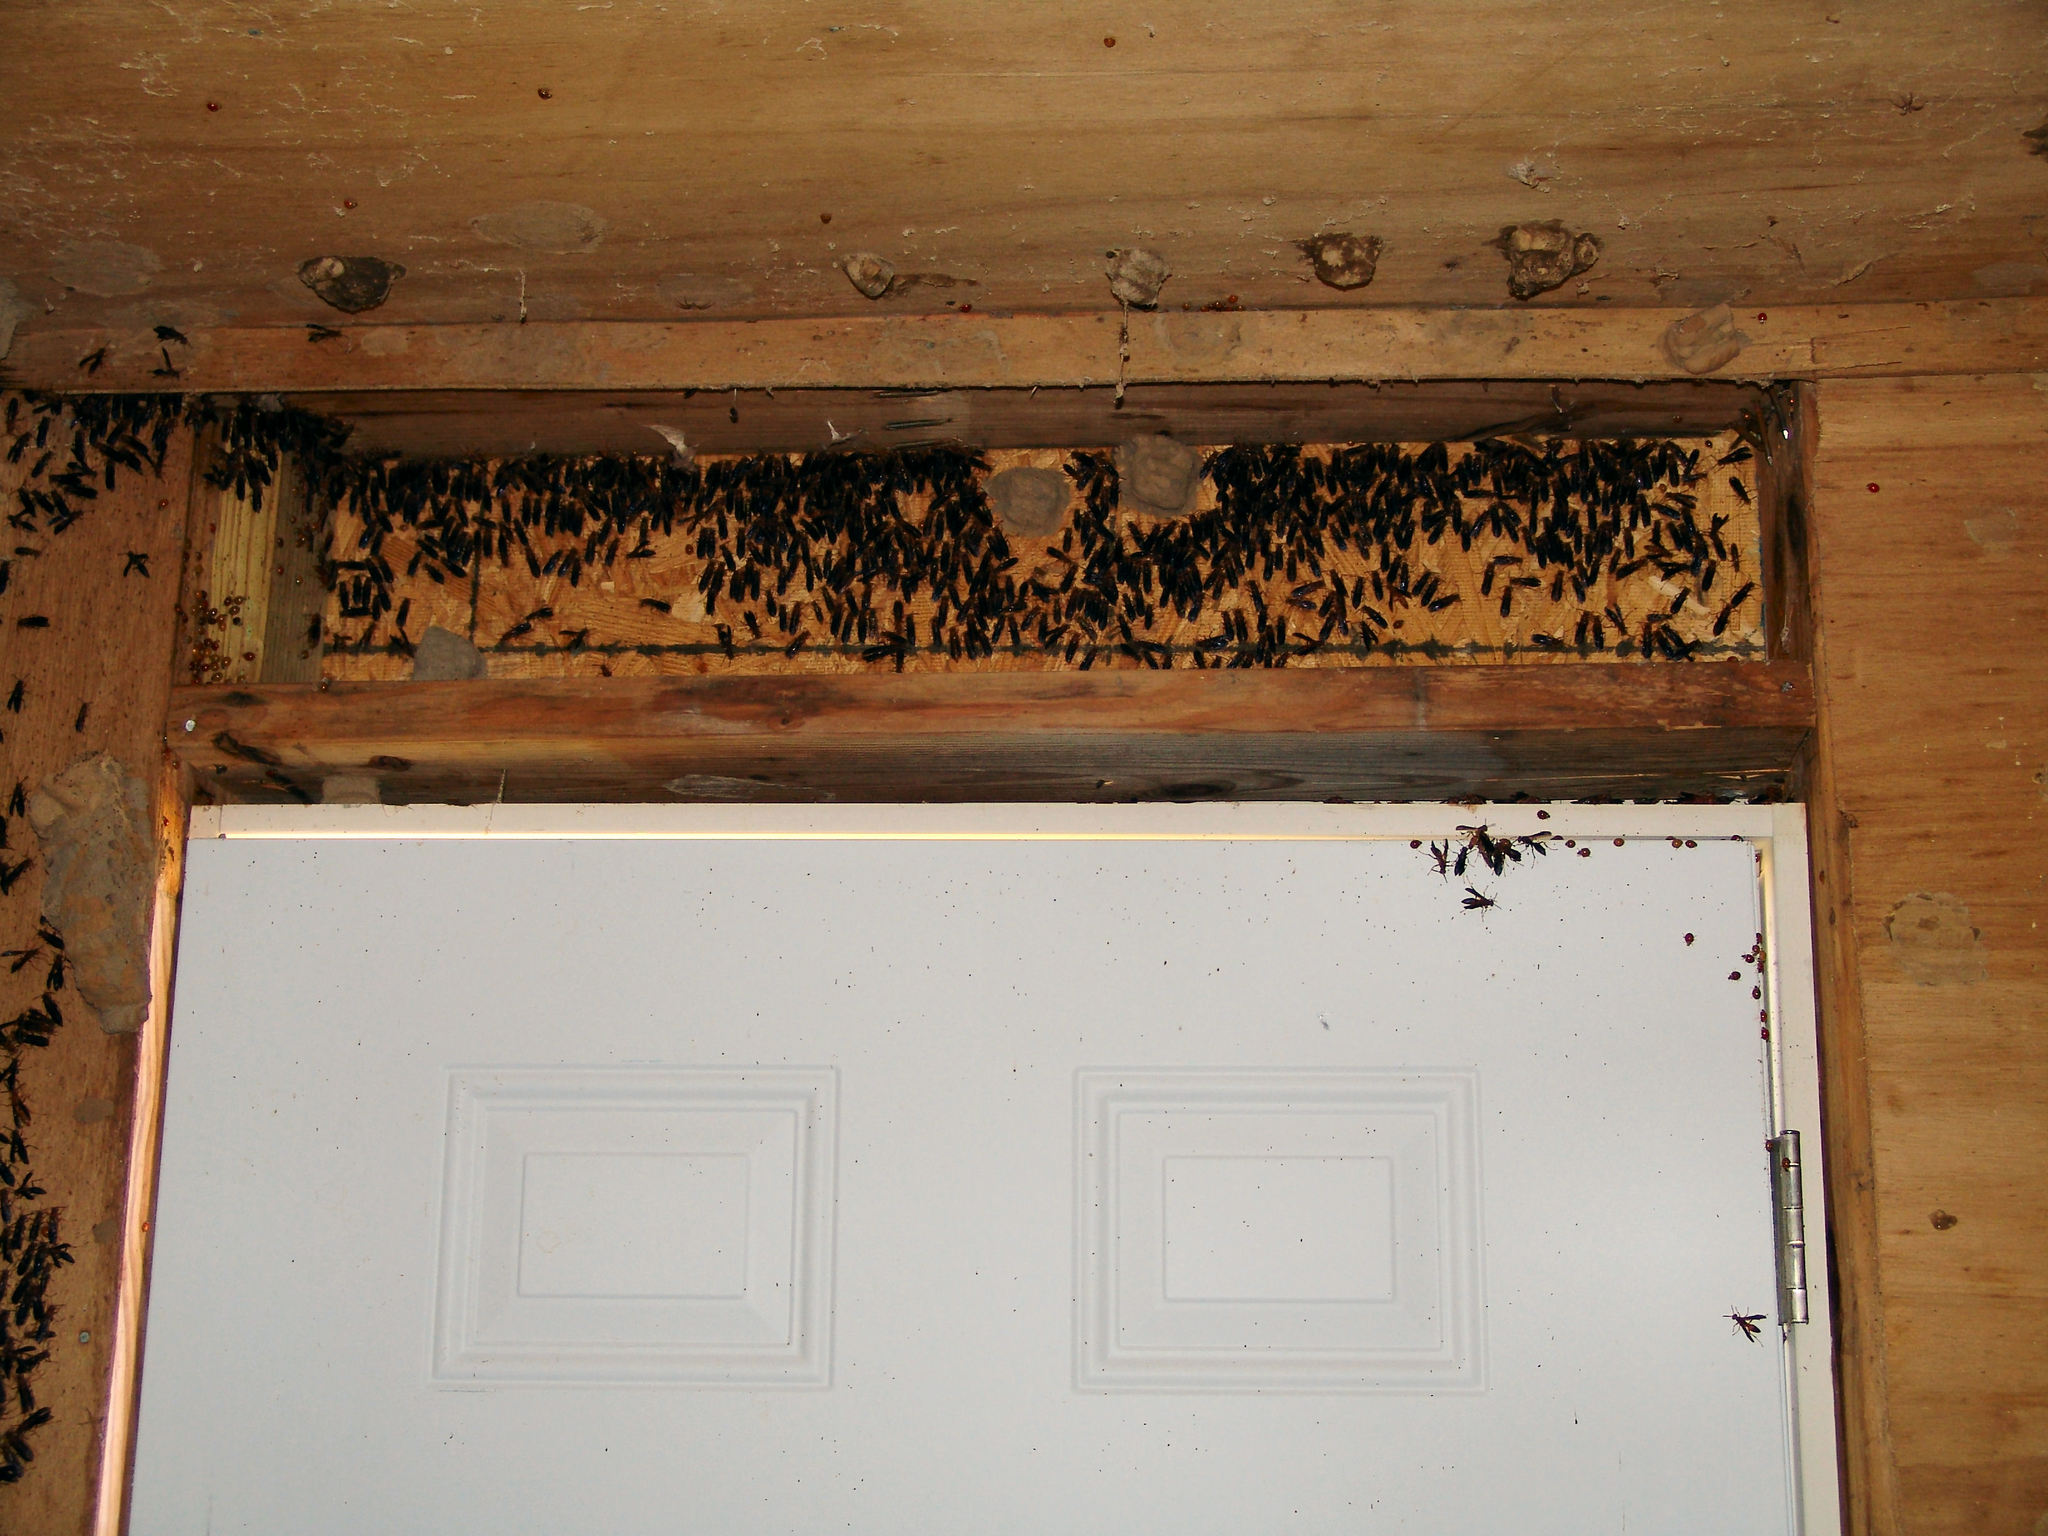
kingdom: Animalia
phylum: Arthropoda
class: Insecta
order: Hymenoptera
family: Eumenidae
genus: Polistes
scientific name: Polistes
